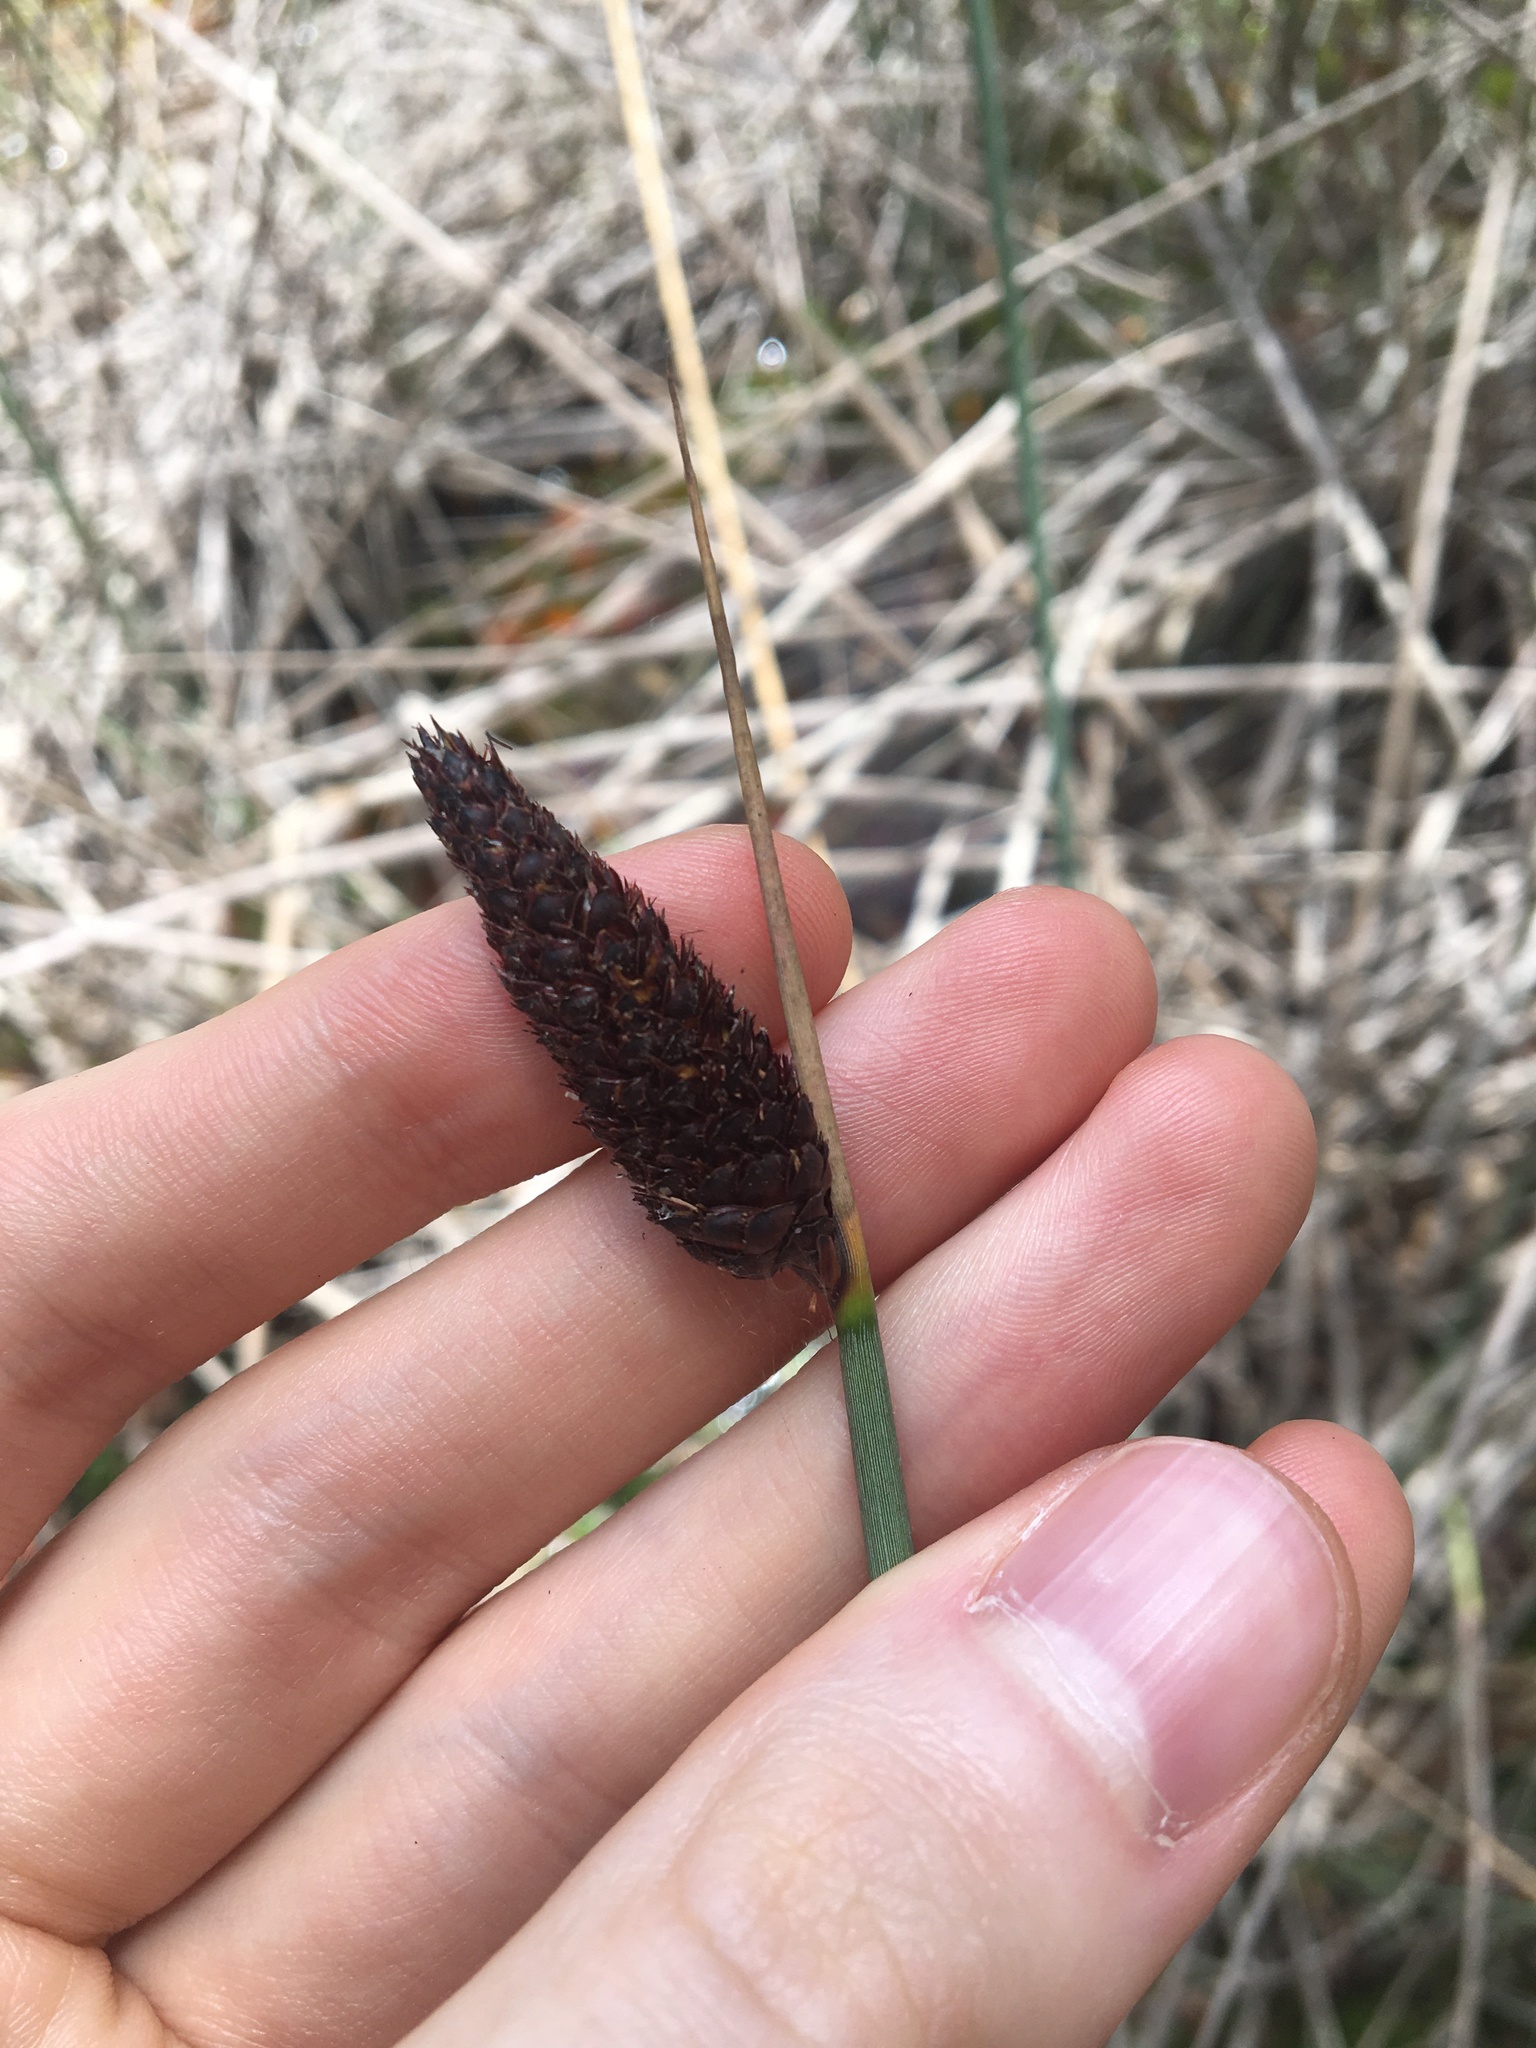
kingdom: Plantae
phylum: Tracheophyta
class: Liliopsida
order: Poales
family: Cyperaceae
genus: Lepironia
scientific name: Lepironia articulata
